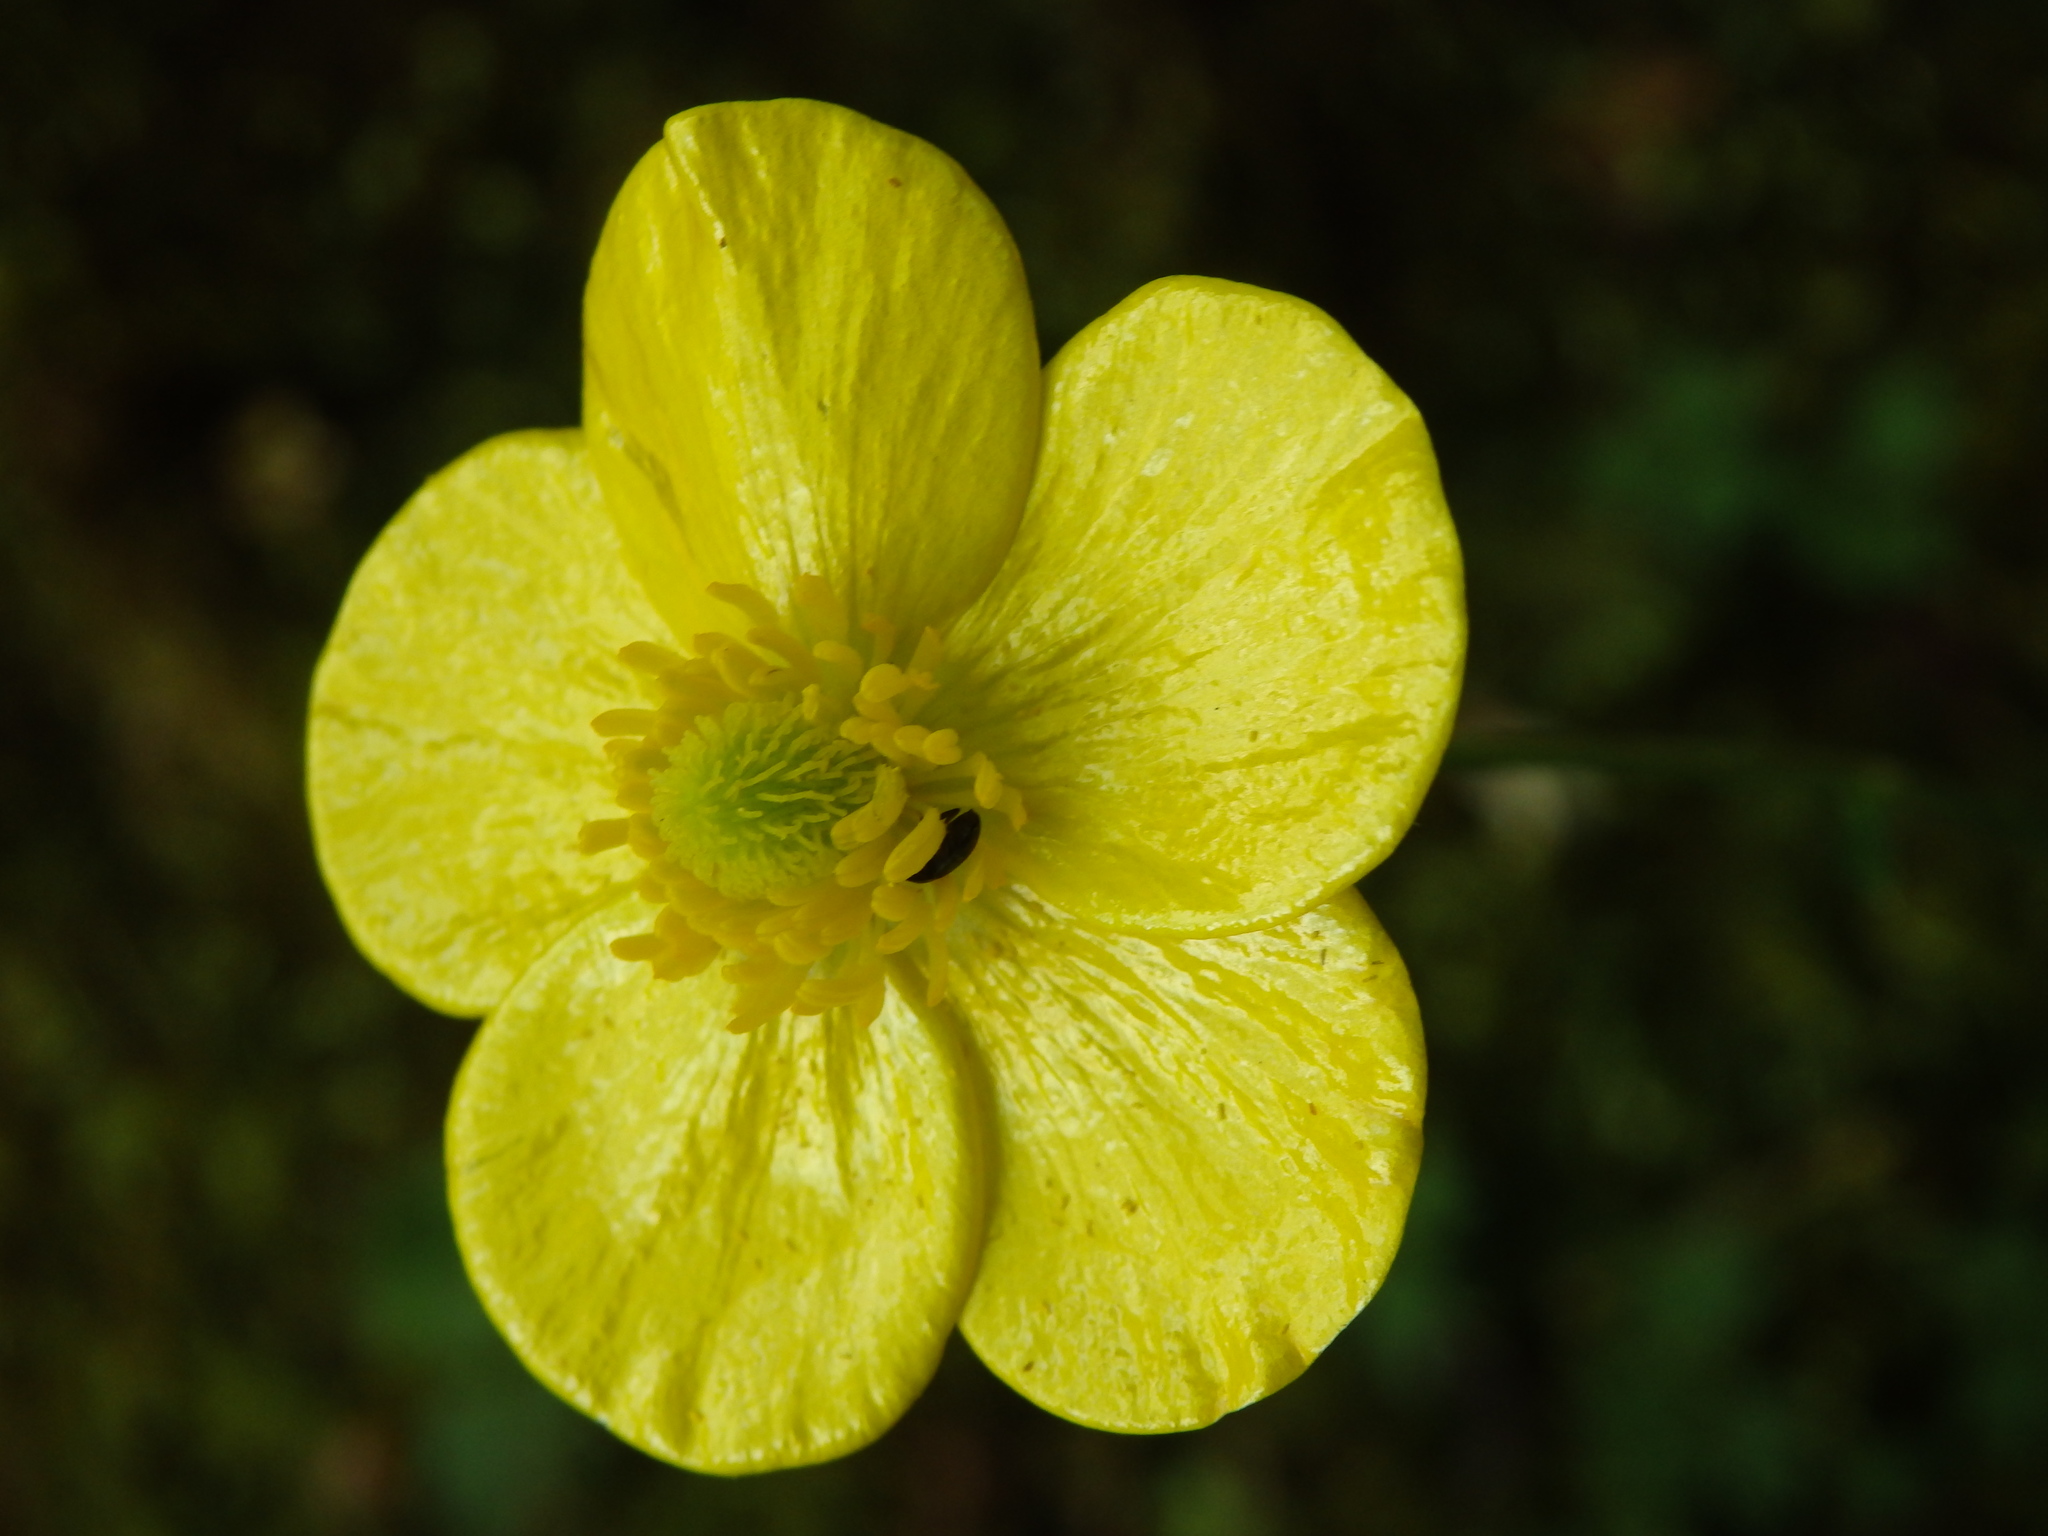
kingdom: Plantae
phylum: Tracheophyta
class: Magnoliopsida
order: Ranunculales
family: Ranunculaceae
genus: Ranunculus
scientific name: Ranunculus gregarius
